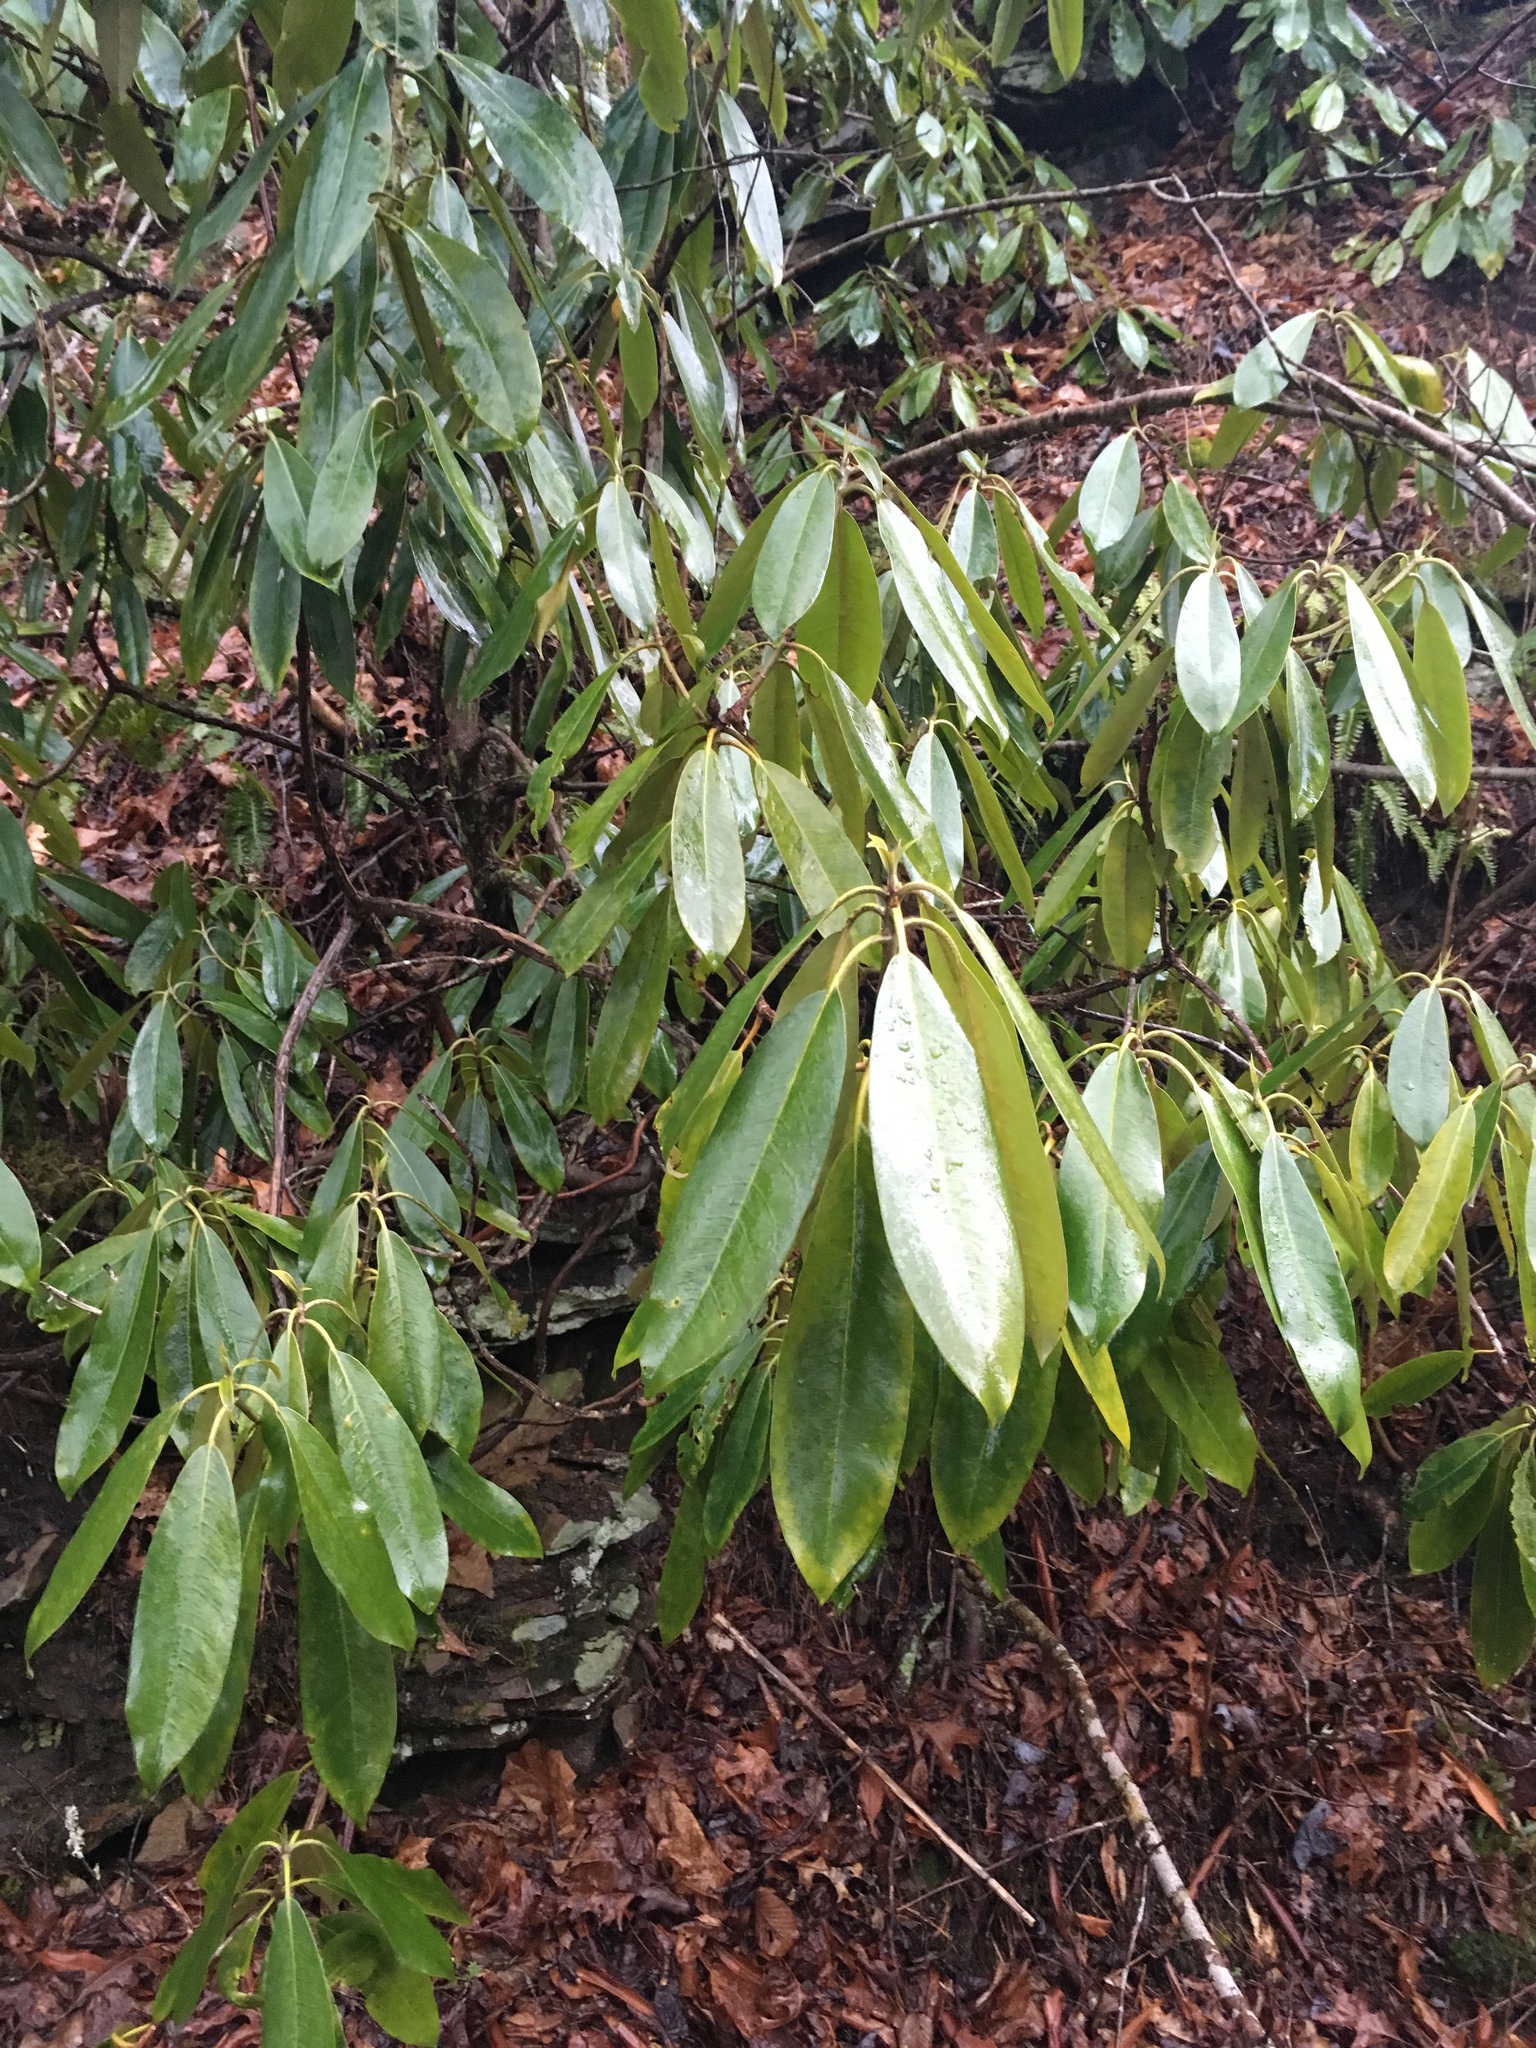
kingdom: Plantae
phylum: Tracheophyta
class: Magnoliopsida
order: Ericales
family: Ericaceae
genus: Rhododendron
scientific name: Rhododendron maximum
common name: Great rhododendron
